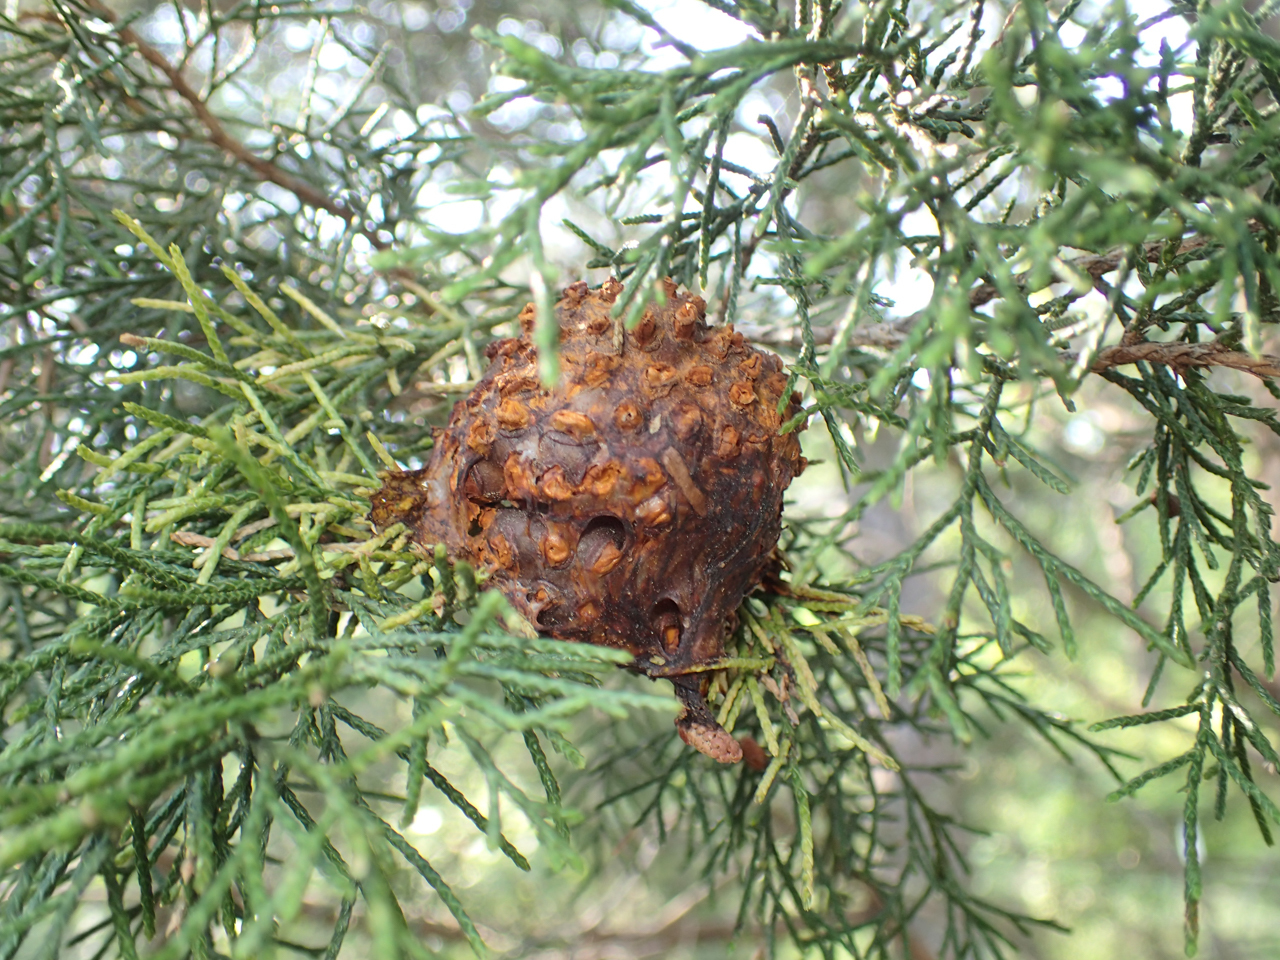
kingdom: Fungi
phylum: Basidiomycota
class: Pucciniomycetes
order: Pucciniales
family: Gymnosporangiaceae
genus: Gymnosporangium
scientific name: Gymnosporangium juniperi-virginianae
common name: Juniper-apple rust
